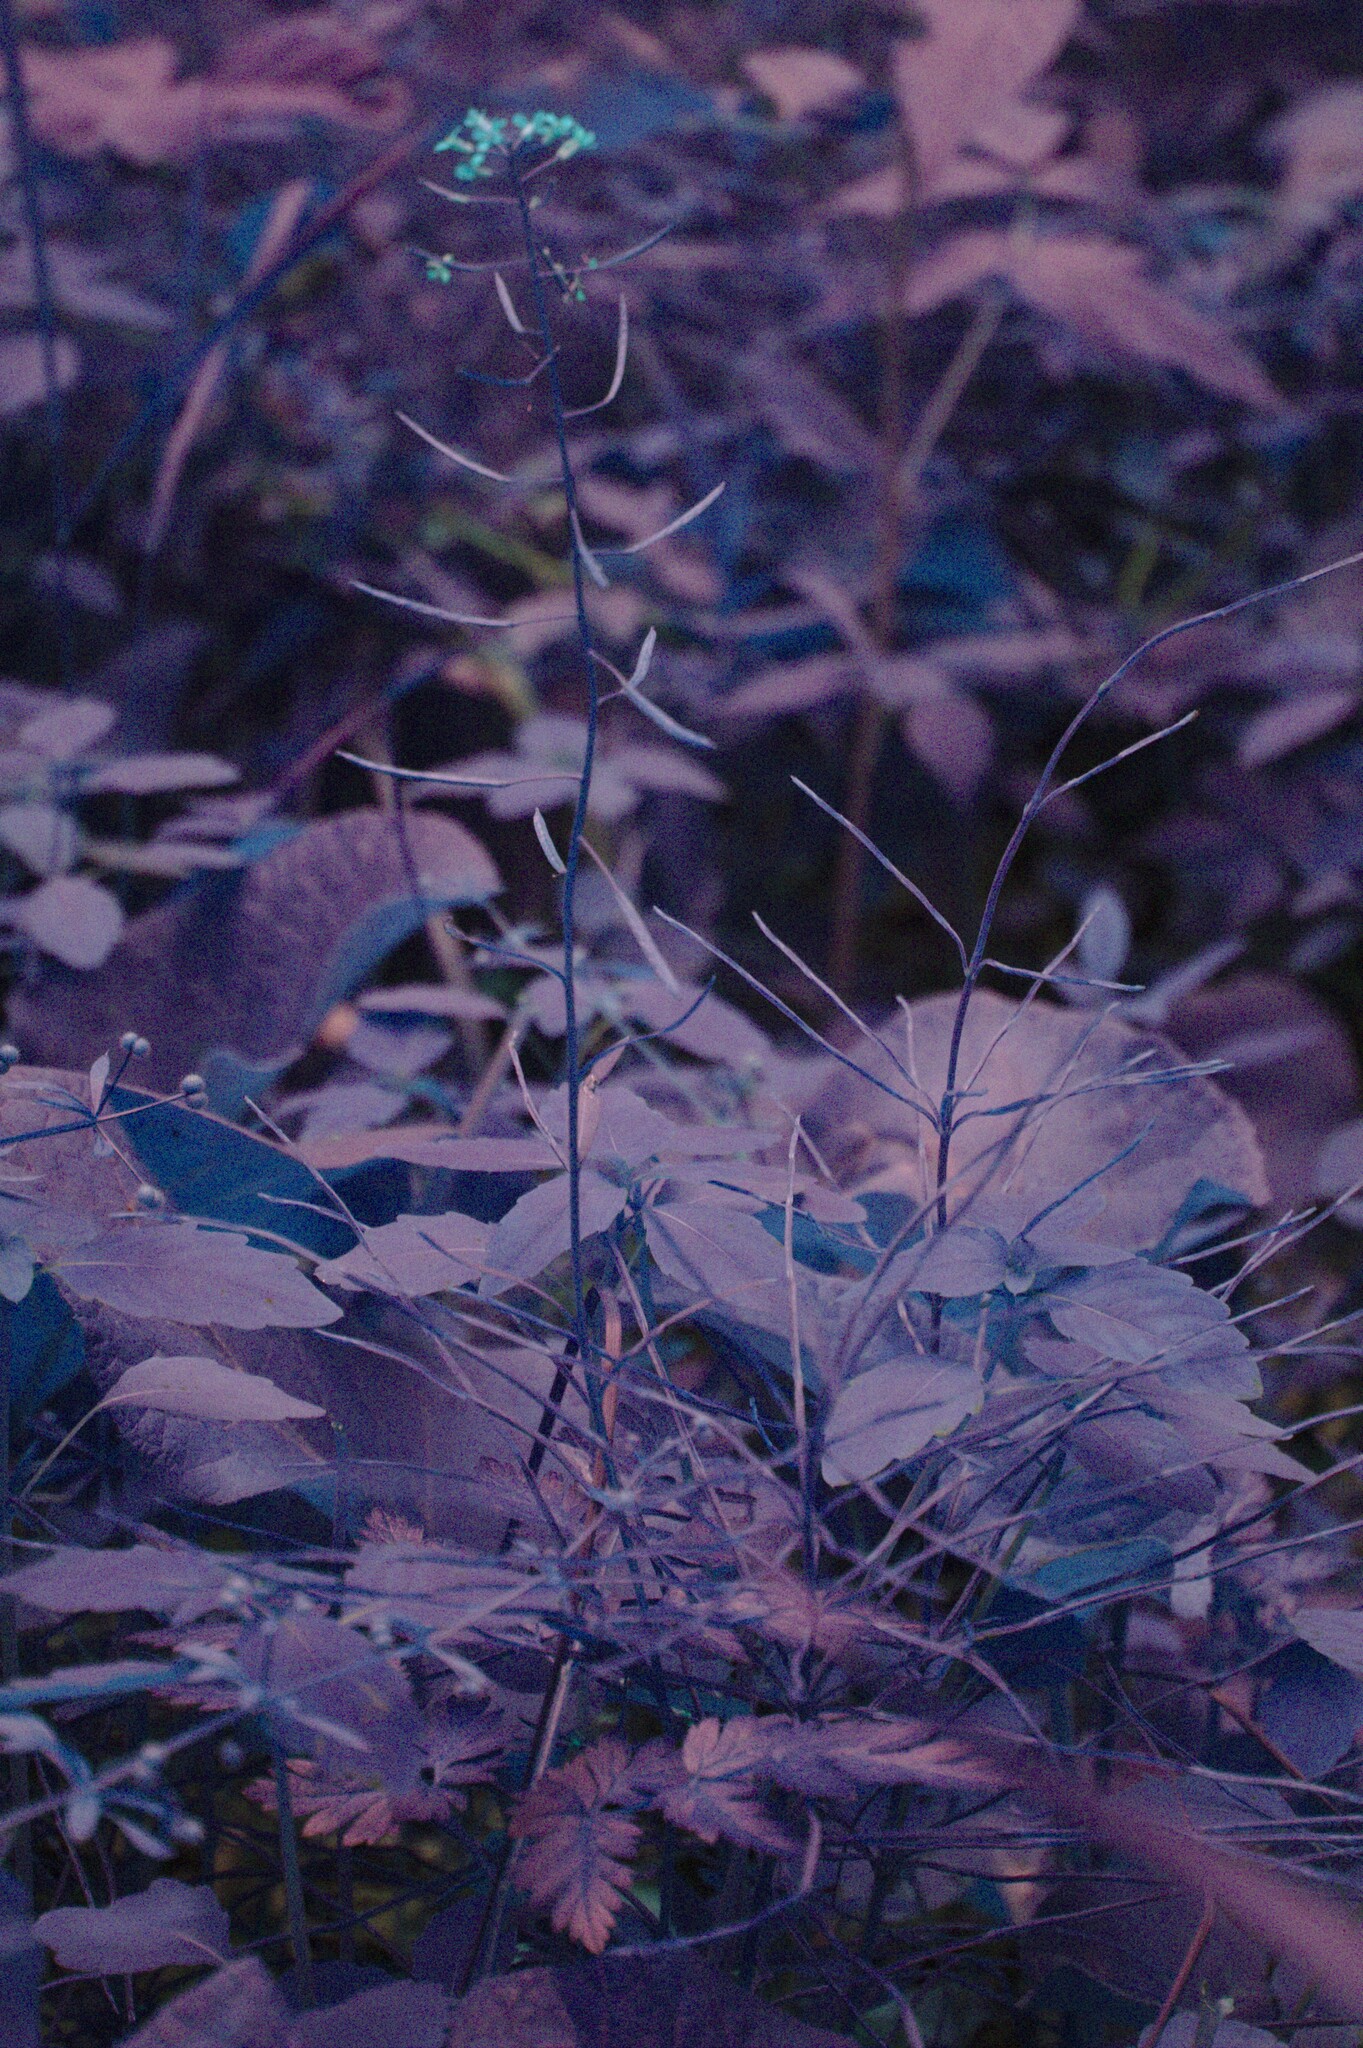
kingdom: Plantae
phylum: Tracheophyta
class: Polypodiopsida
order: Equisetales
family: Equisetaceae
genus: Equisetum
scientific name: Equisetum arvense
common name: Field horsetail
